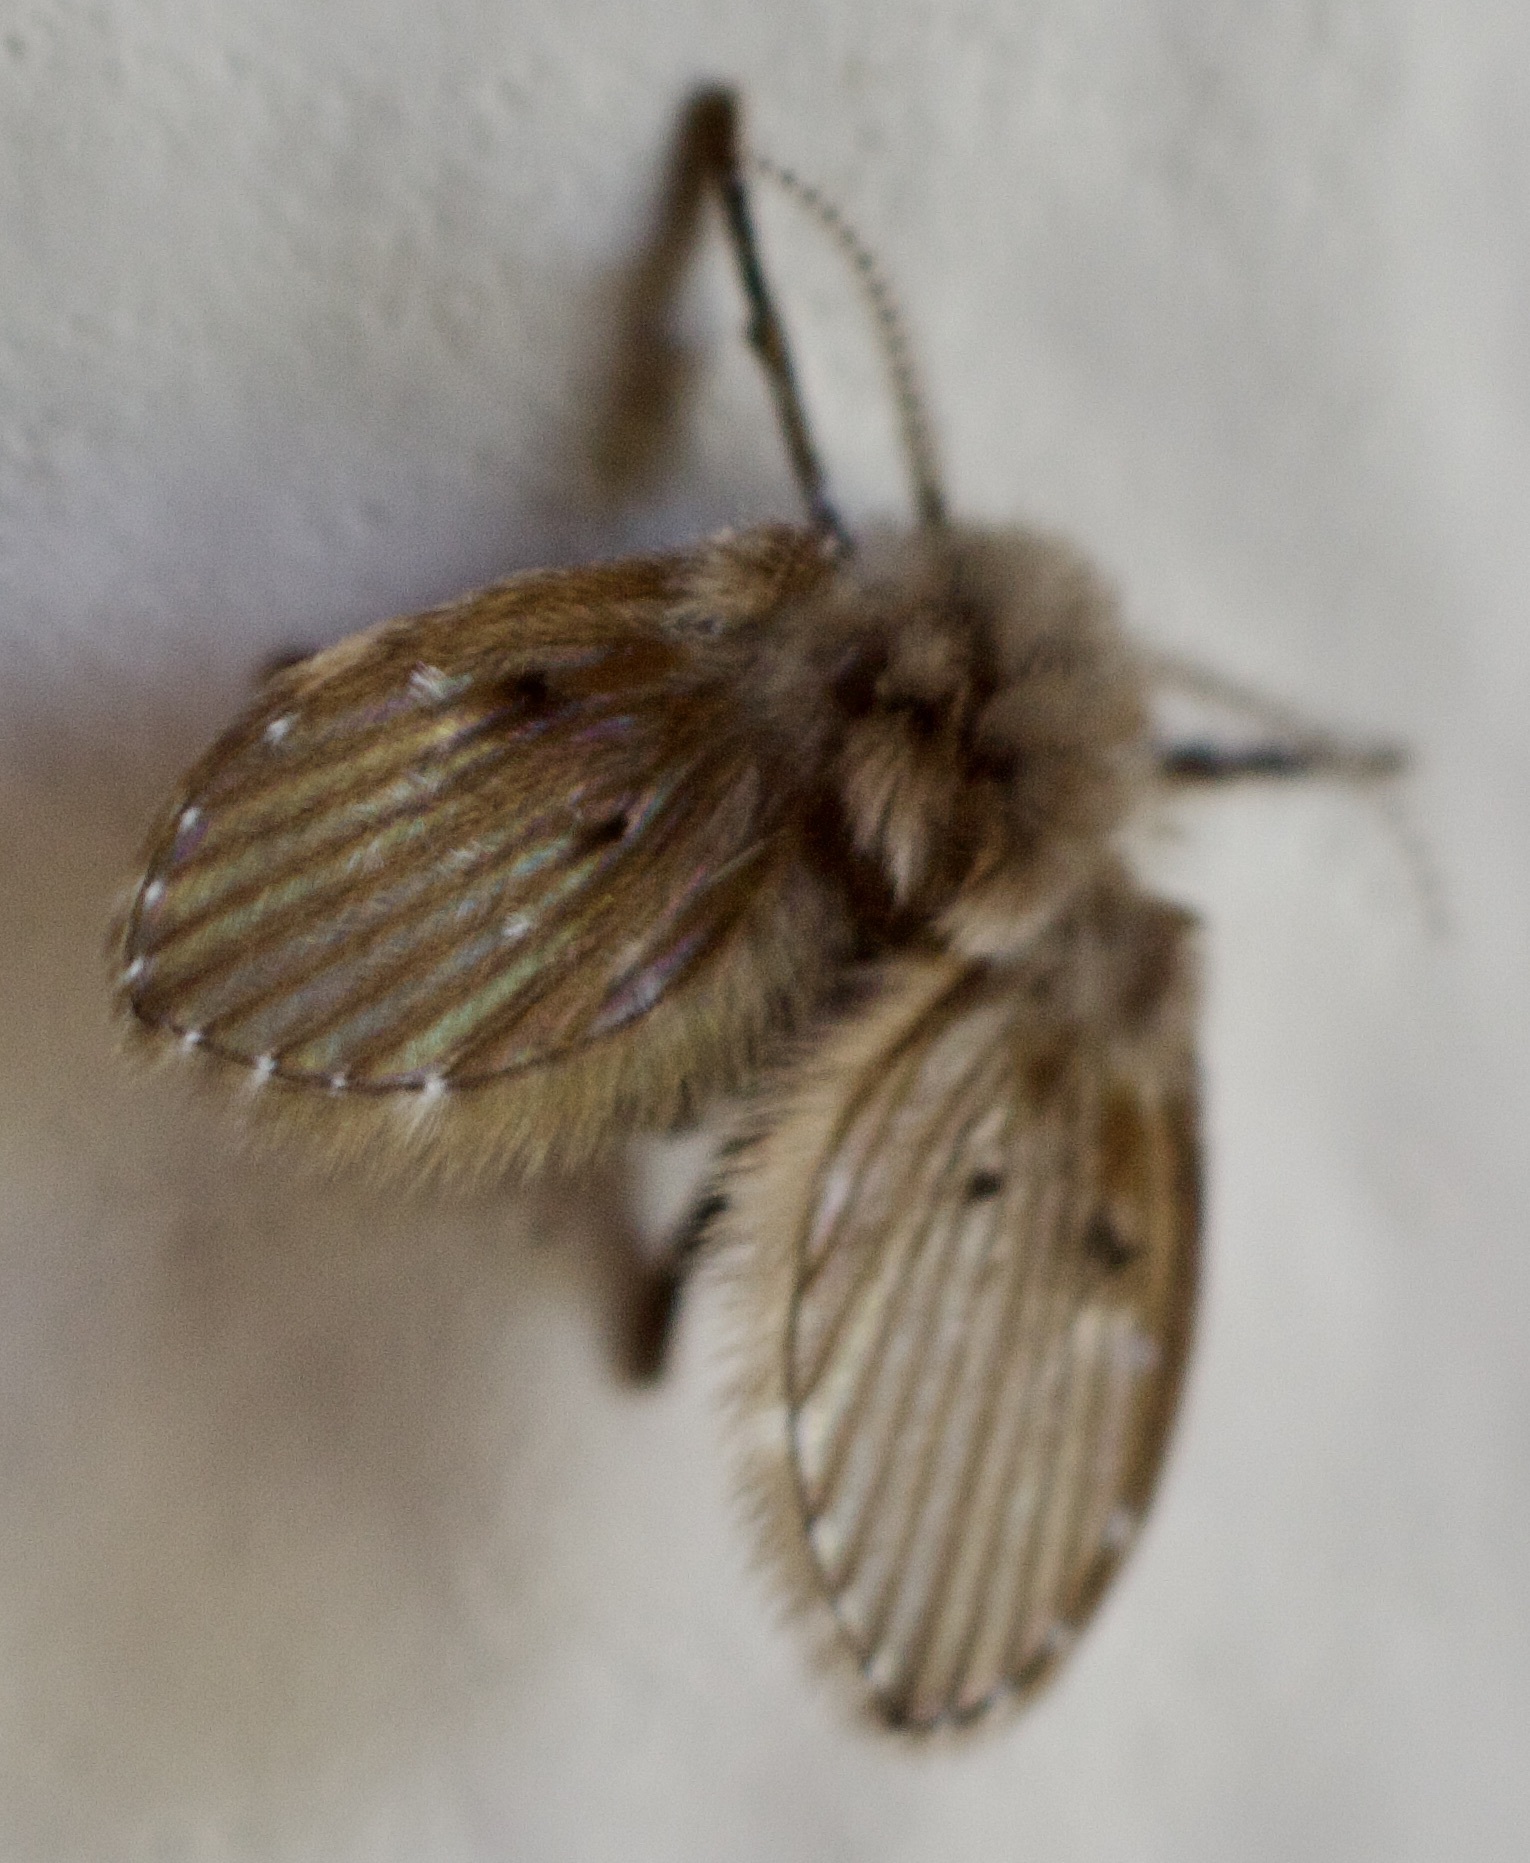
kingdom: Animalia
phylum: Arthropoda
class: Insecta
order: Diptera
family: Psychodidae
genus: Clogmia
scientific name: Clogmia albipunctatus
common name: White-spotted moth fly
